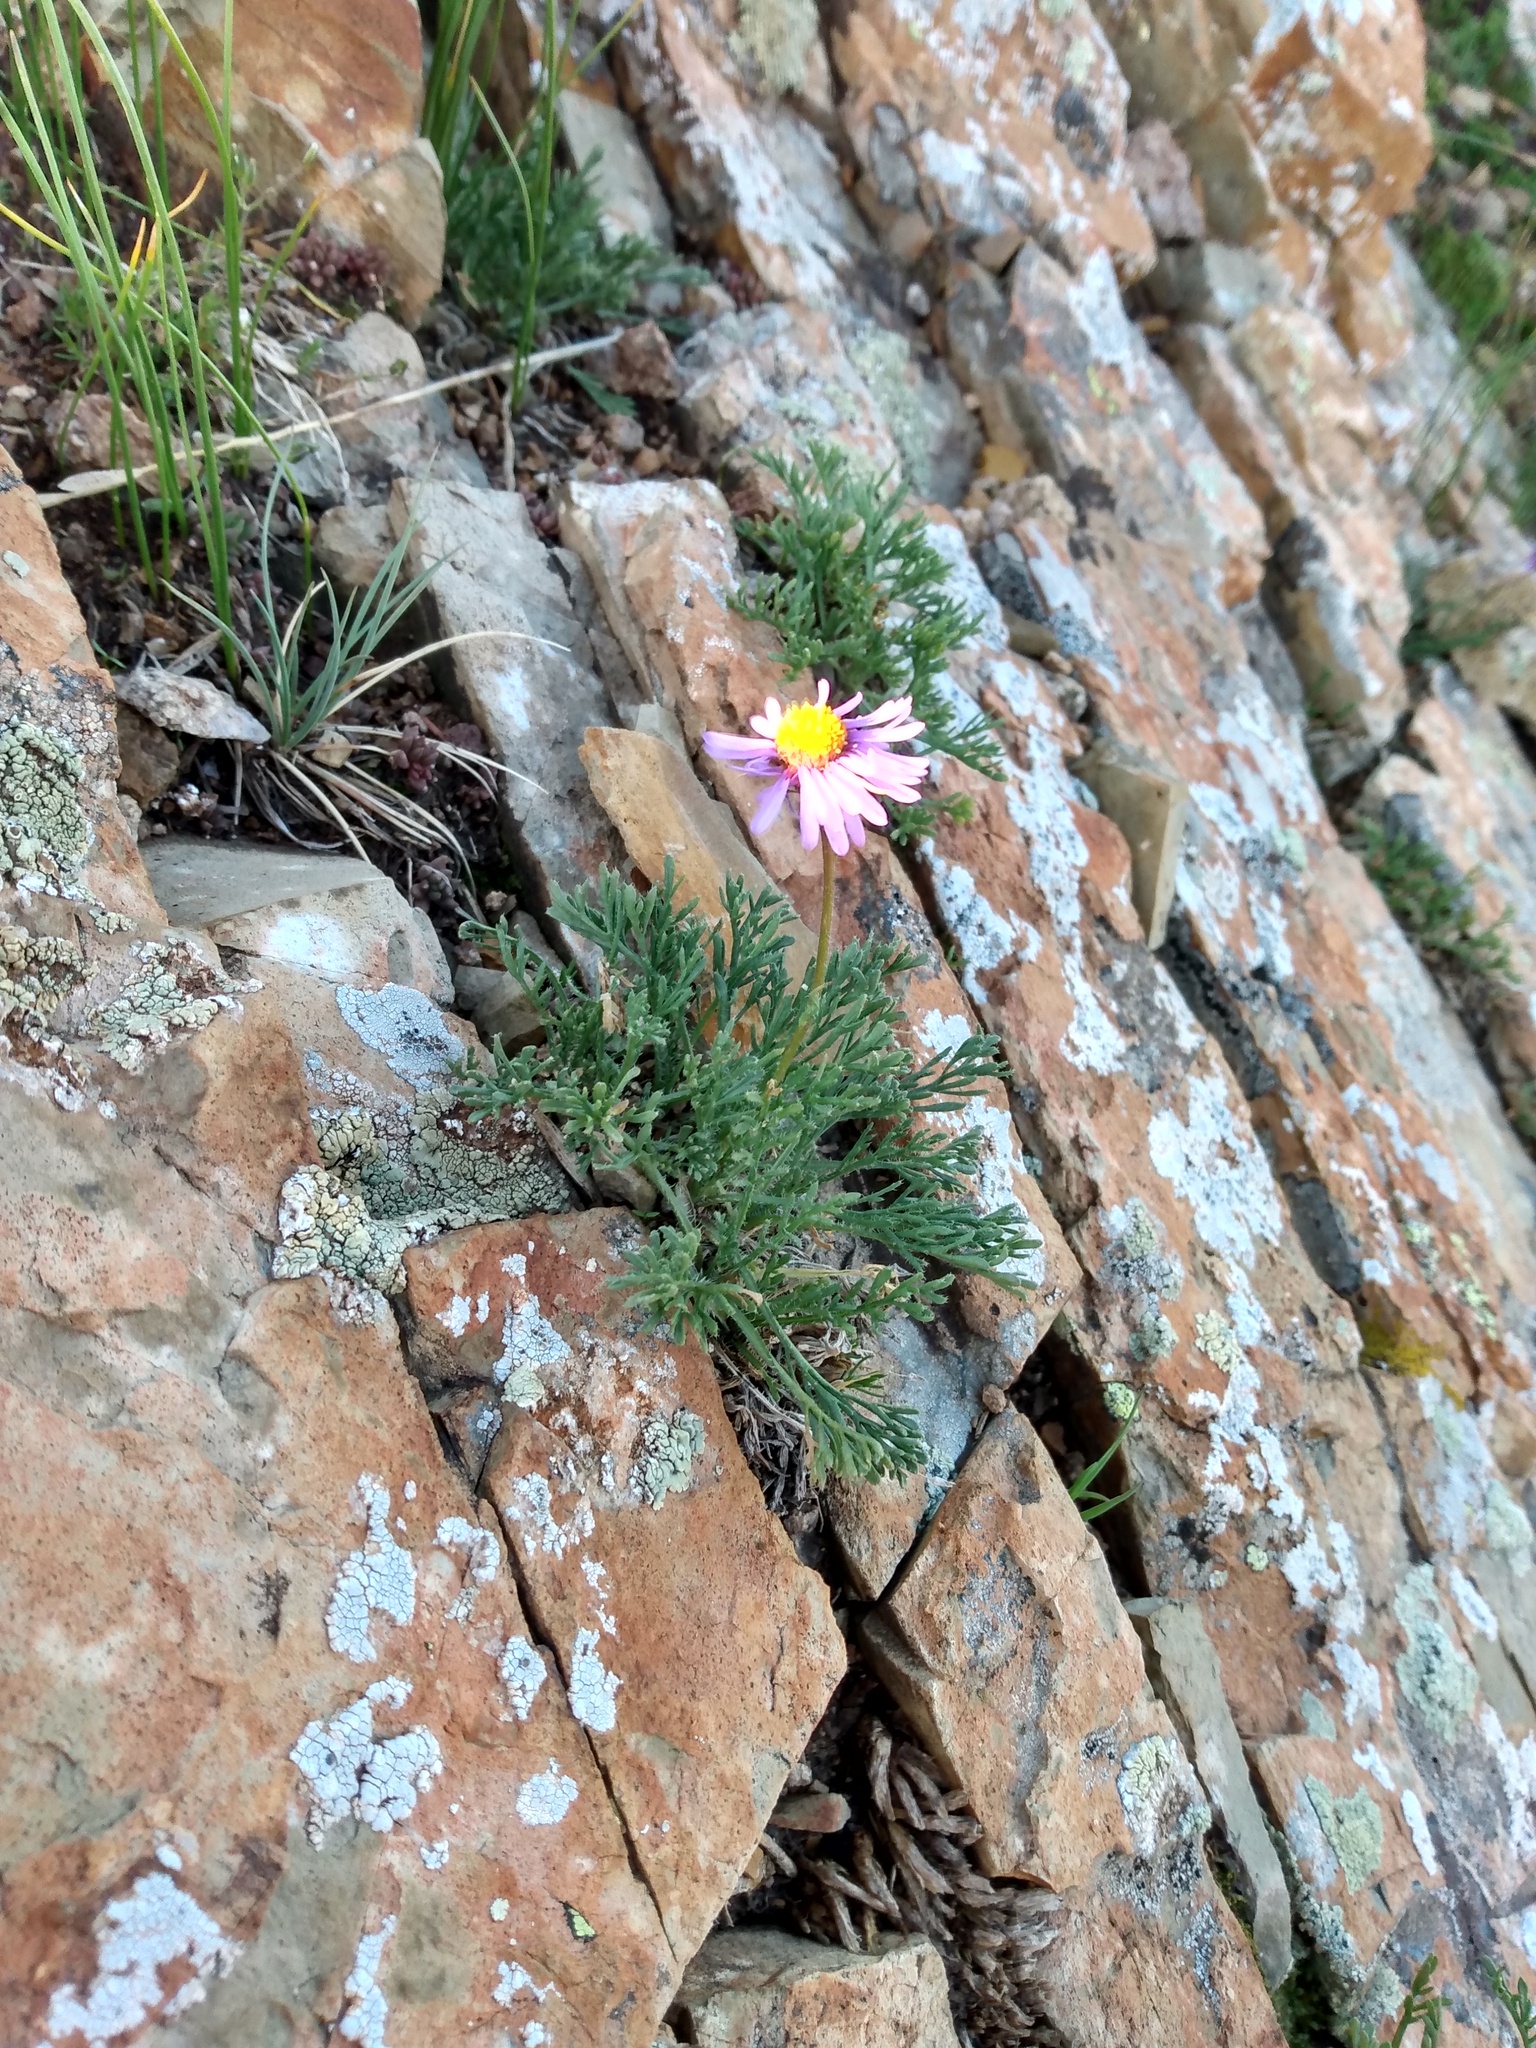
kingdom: Plantae
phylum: Tracheophyta
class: Magnoliopsida
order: Asterales
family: Asteraceae
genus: Erigeron
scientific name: Erigeron pinnatisectus
